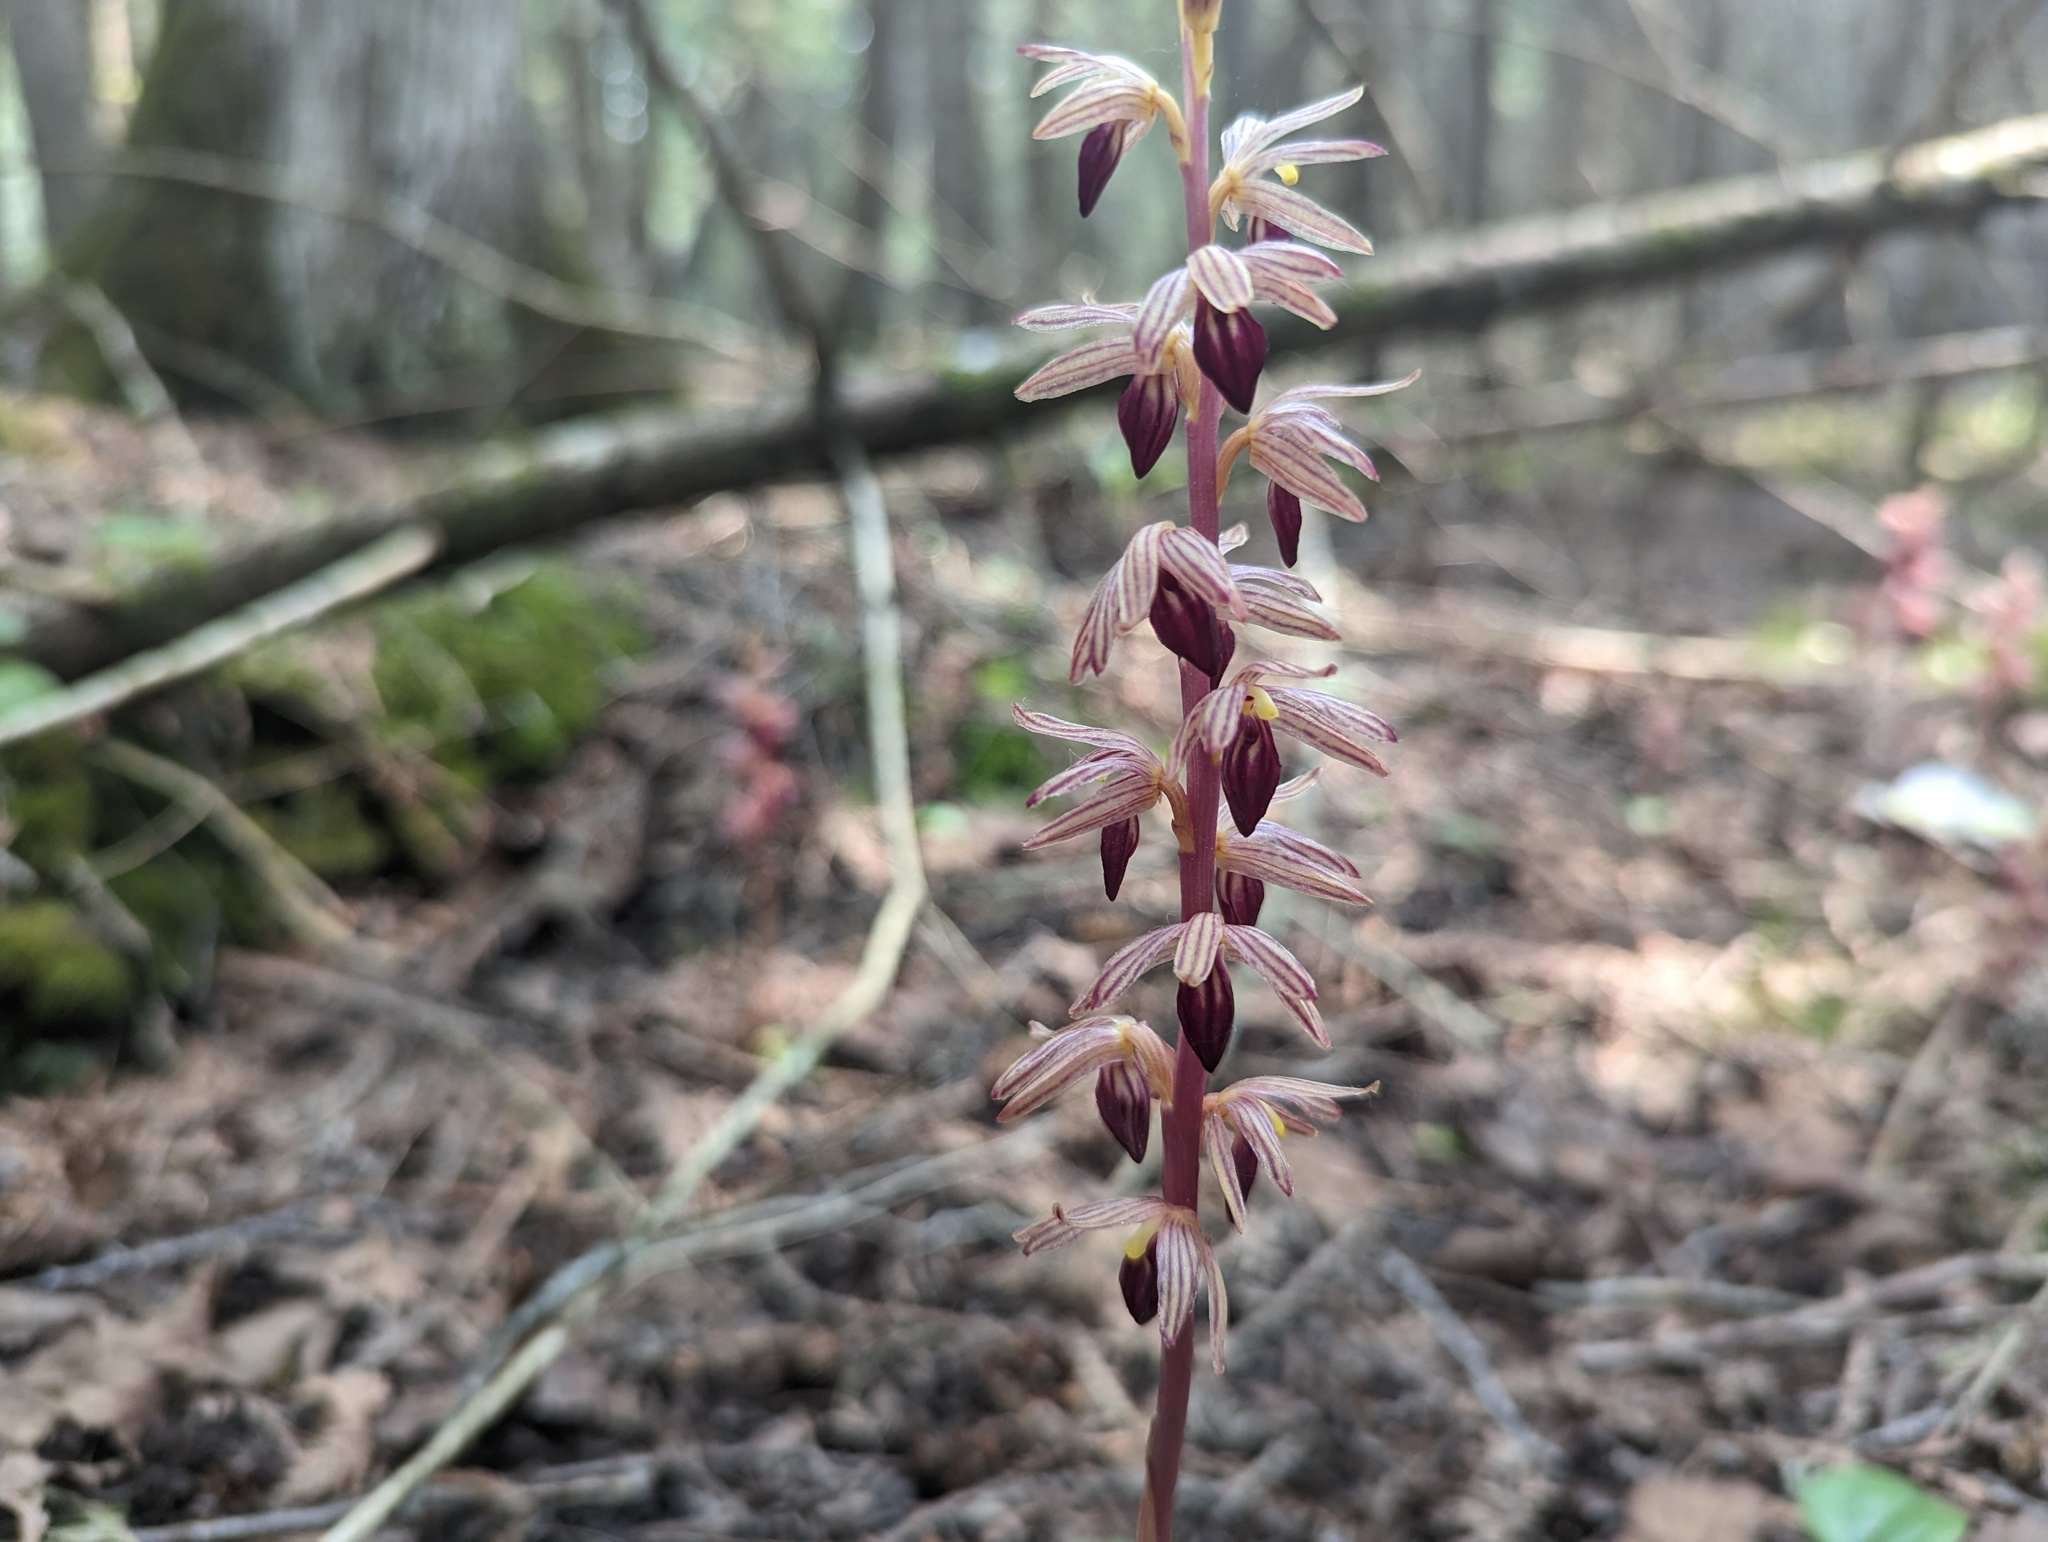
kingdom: Plantae
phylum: Tracheophyta
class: Liliopsida
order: Asparagales
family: Orchidaceae
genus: Corallorhiza
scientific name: Corallorhiza striata
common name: Hooded coralroot
